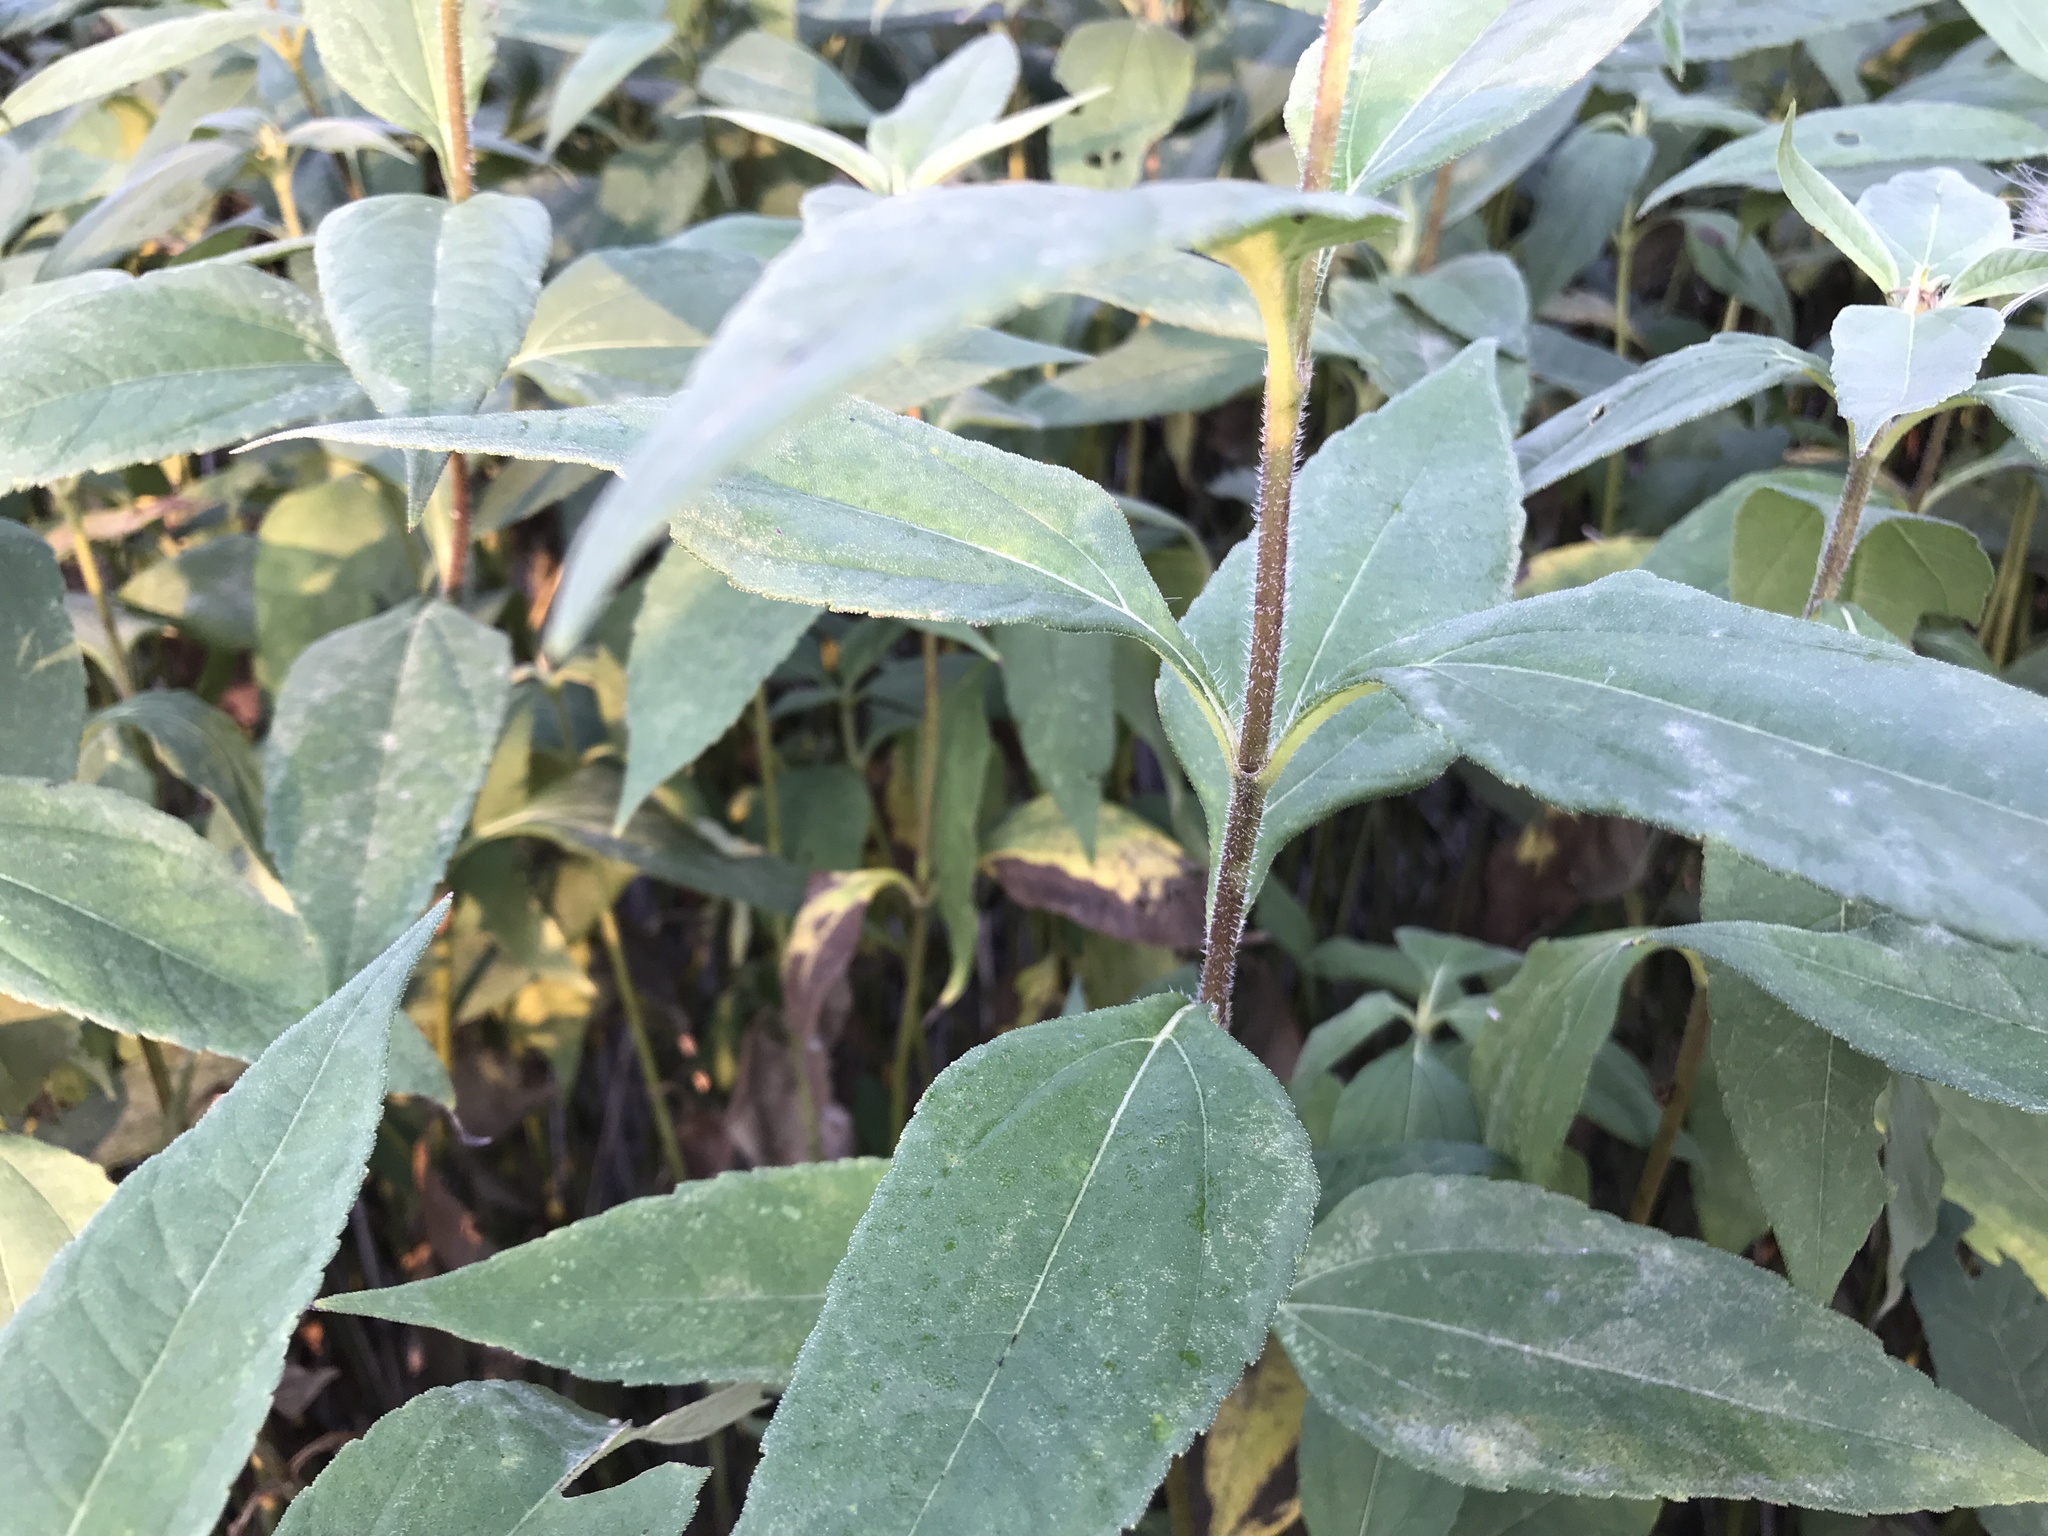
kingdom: Plantae
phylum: Tracheophyta
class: Magnoliopsida
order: Asterales
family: Asteraceae
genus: Helianthus
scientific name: Helianthus tuberosus
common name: Jerusalem artichoke
